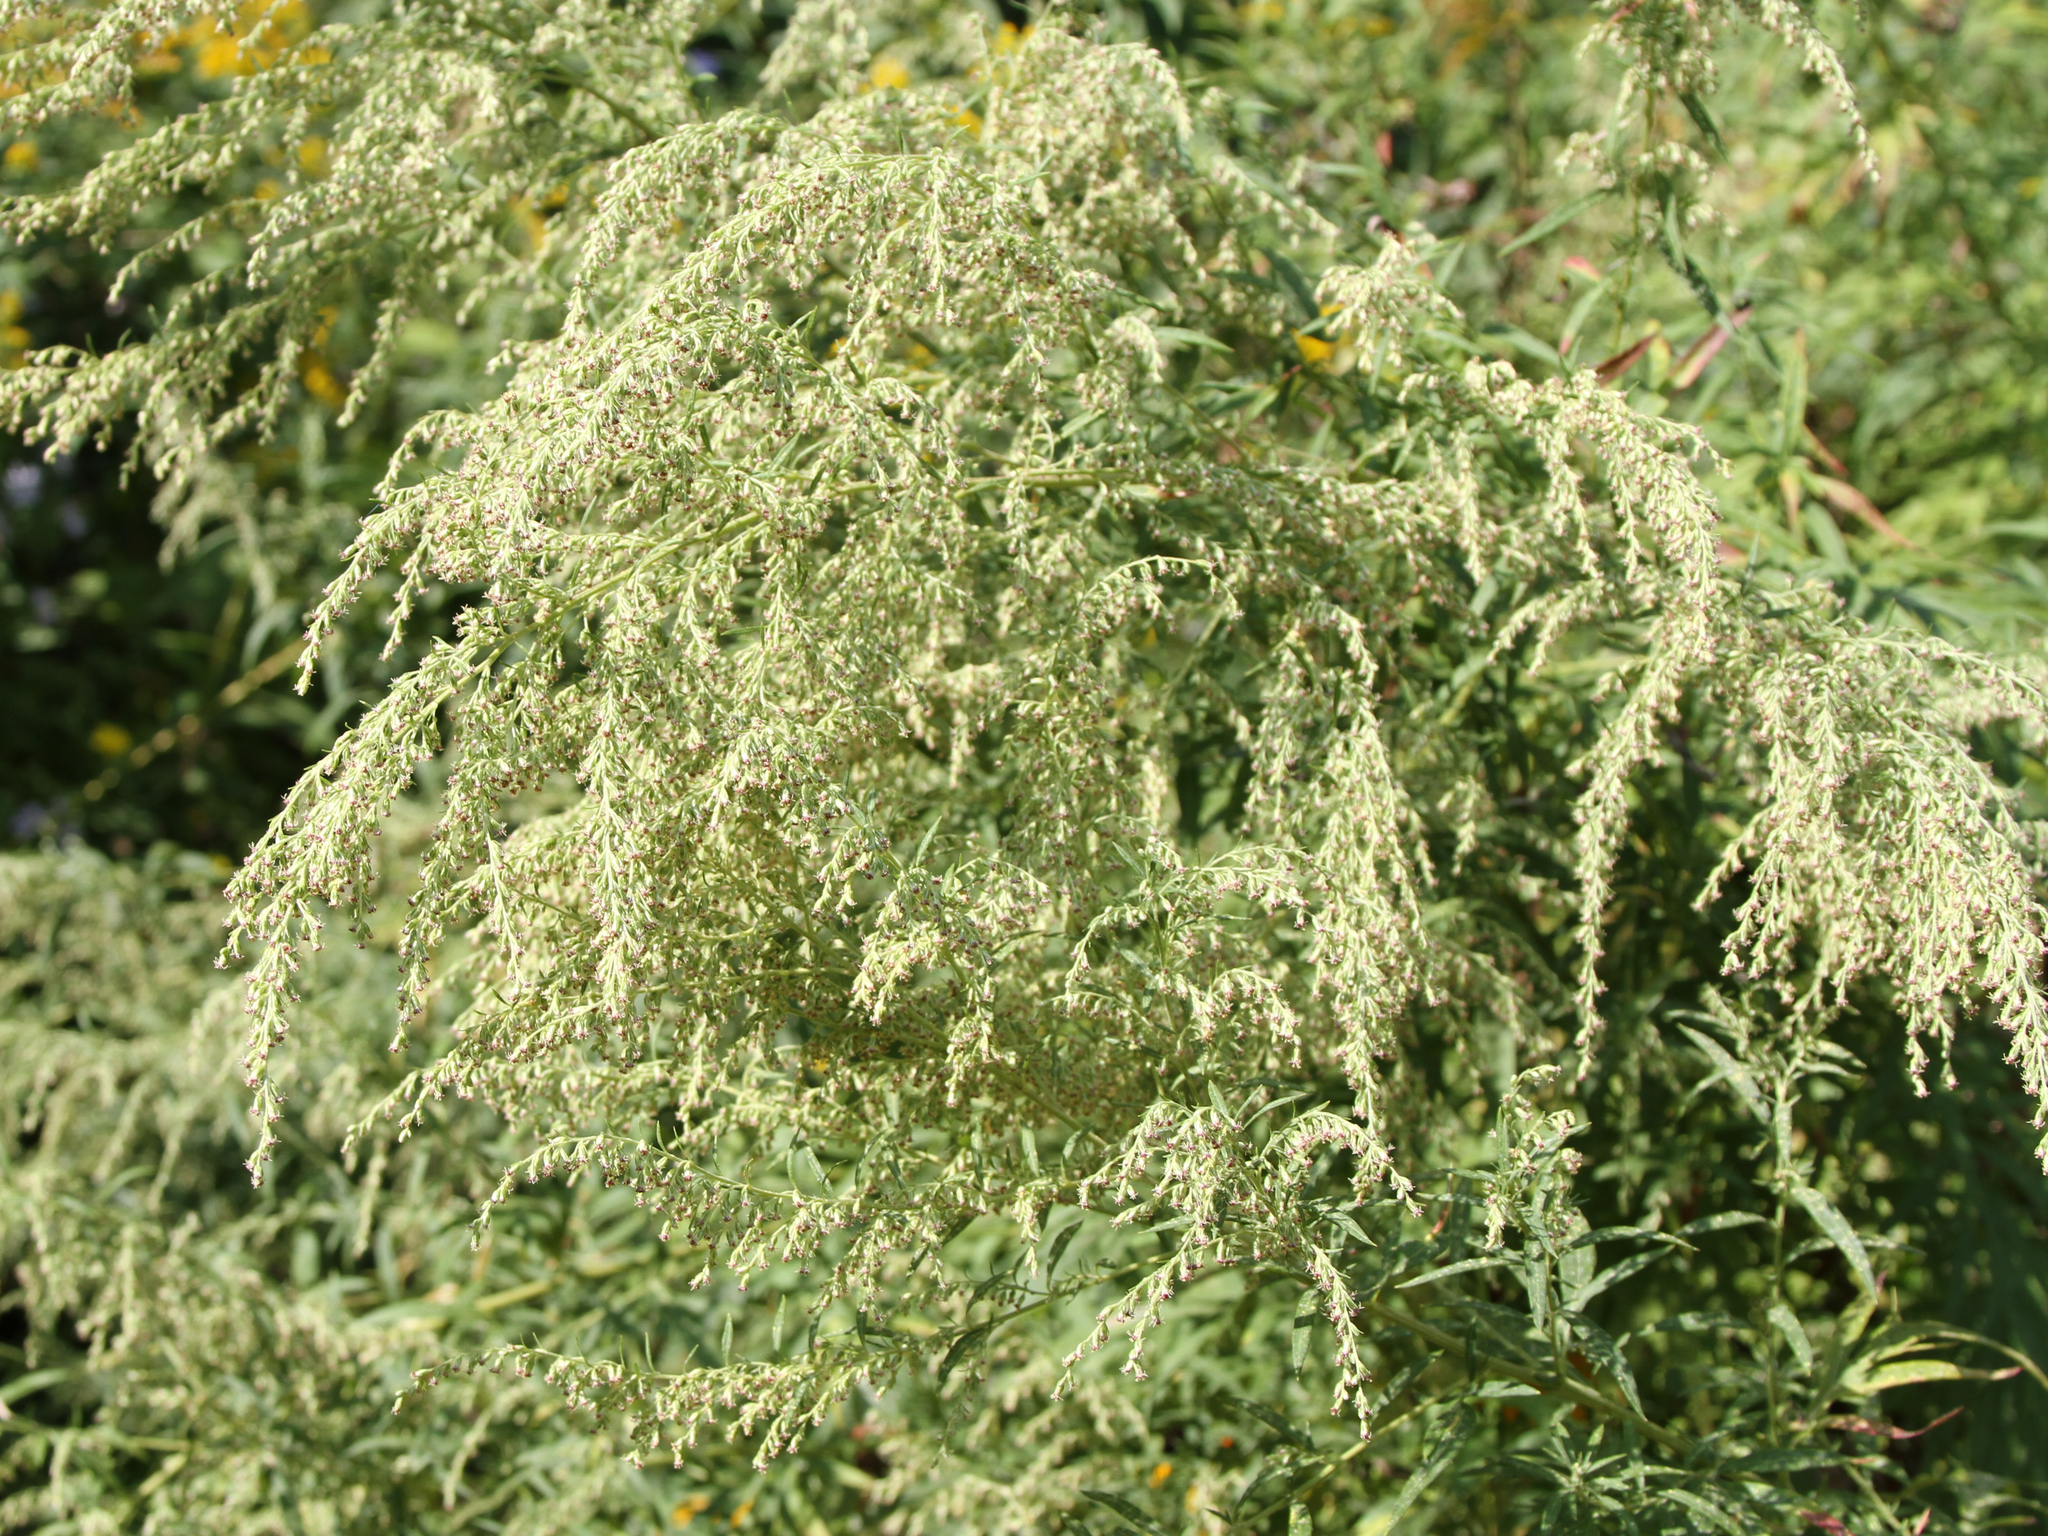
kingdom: Plantae
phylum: Tracheophyta
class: Magnoliopsida
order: Asterales
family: Asteraceae
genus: Artemisia
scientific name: Artemisia vulgaris
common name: Mugwort
